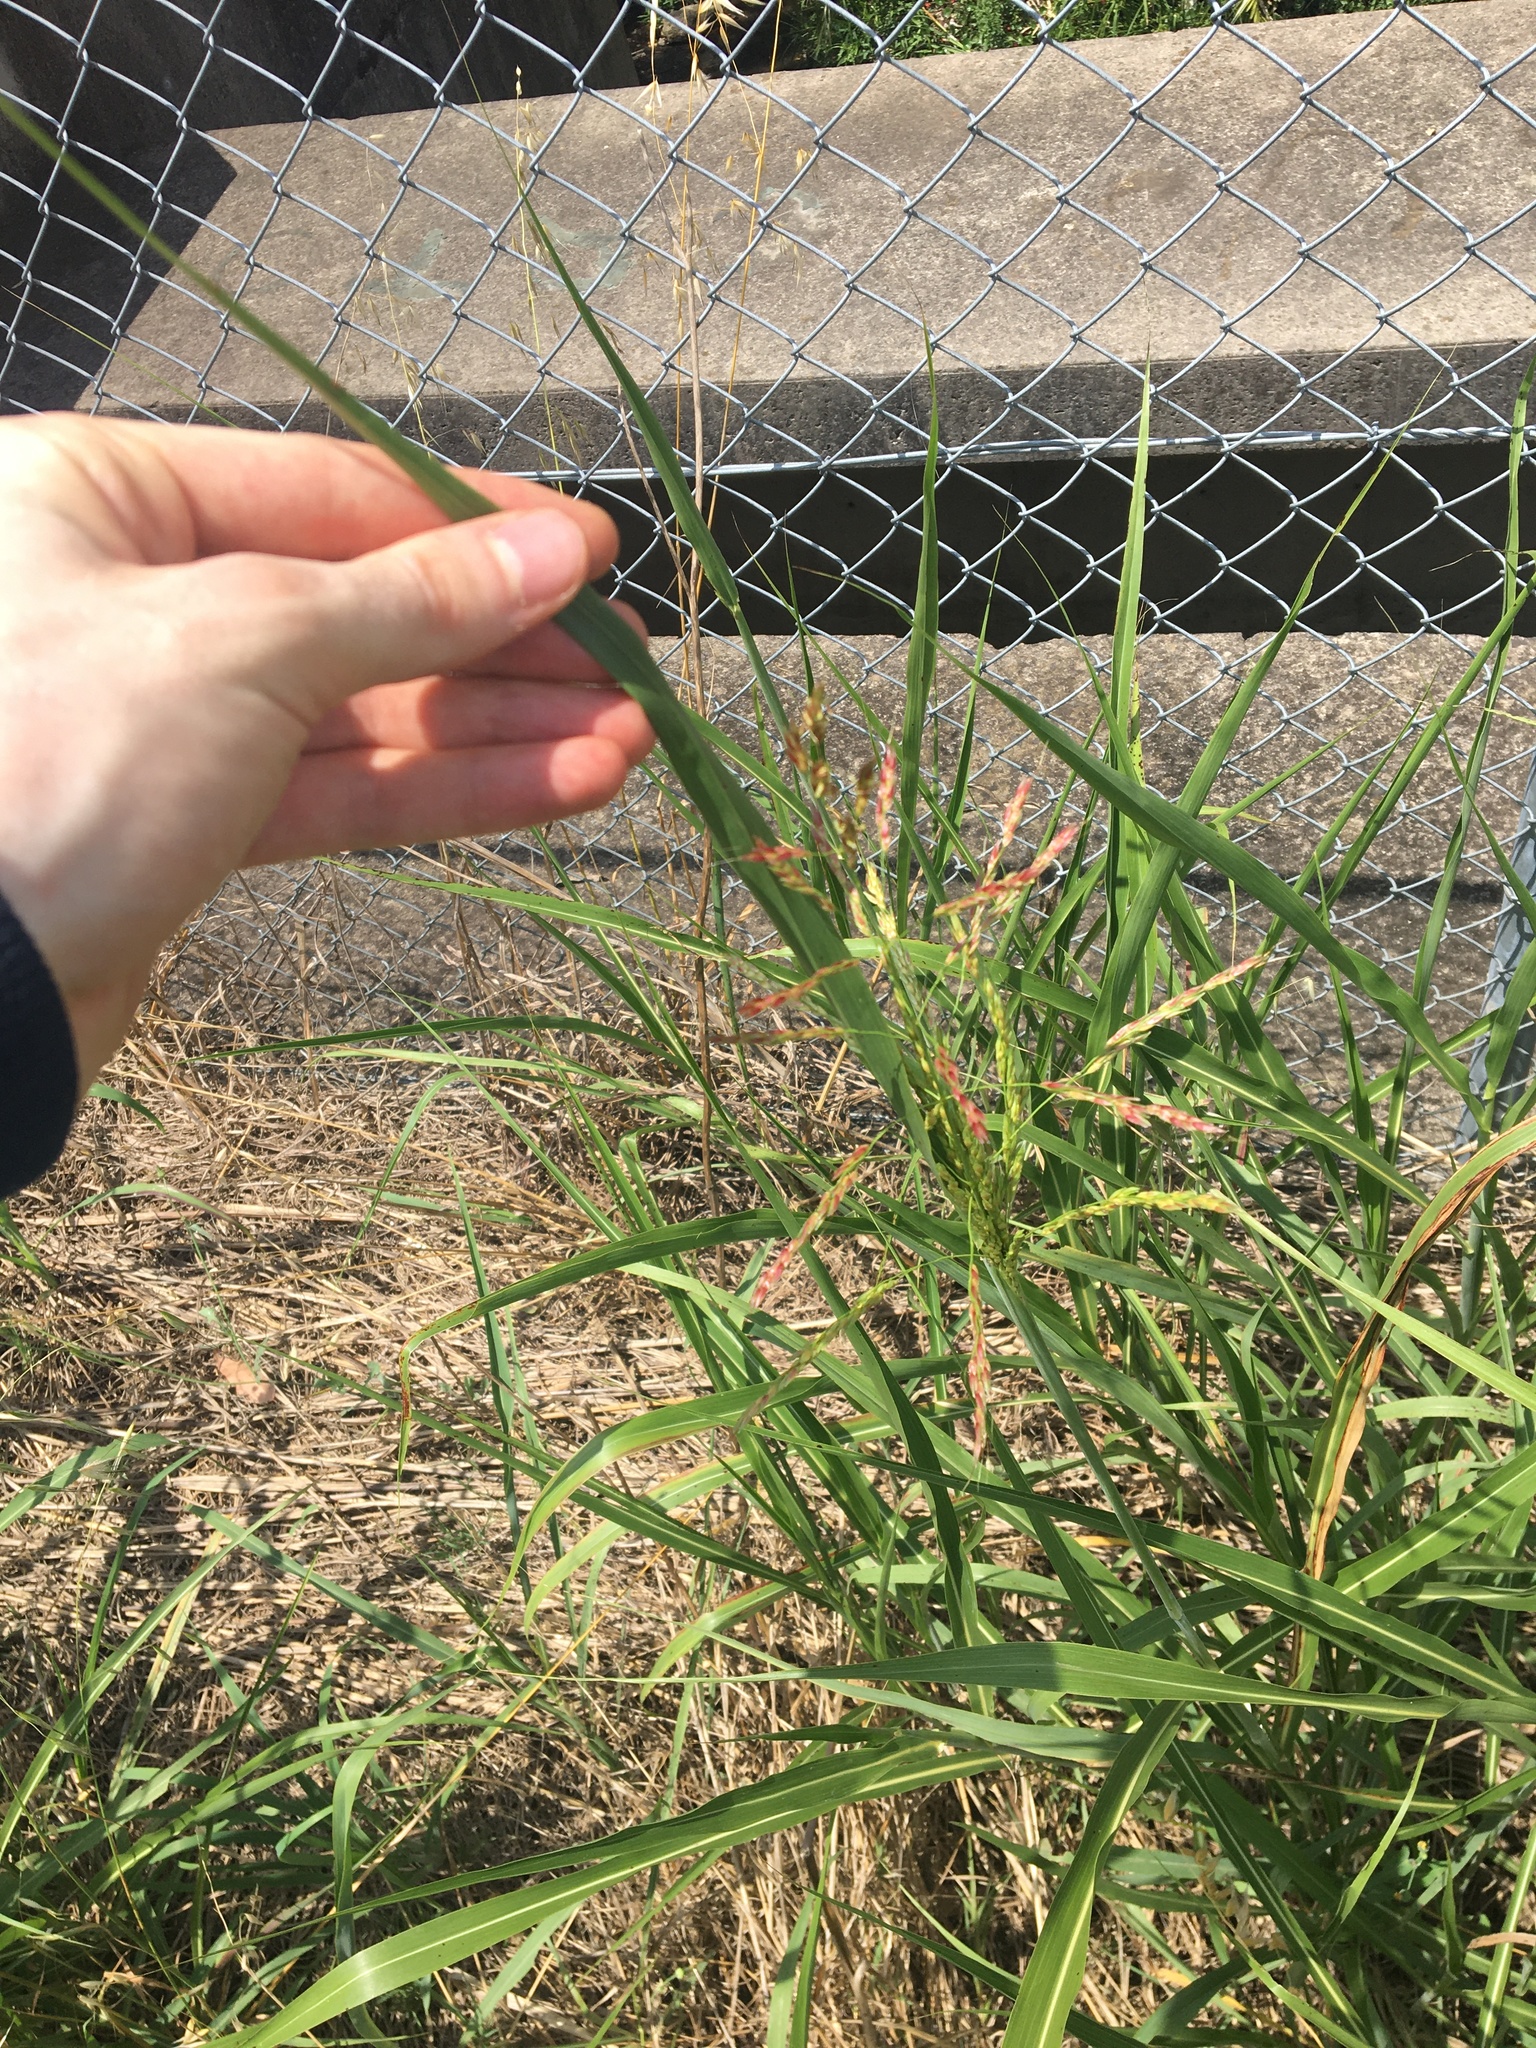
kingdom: Plantae
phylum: Tracheophyta
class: Liliopsida
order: Poales
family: Poaceae
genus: Sorghum
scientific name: Sorghum halepense
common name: Johnson-grass
